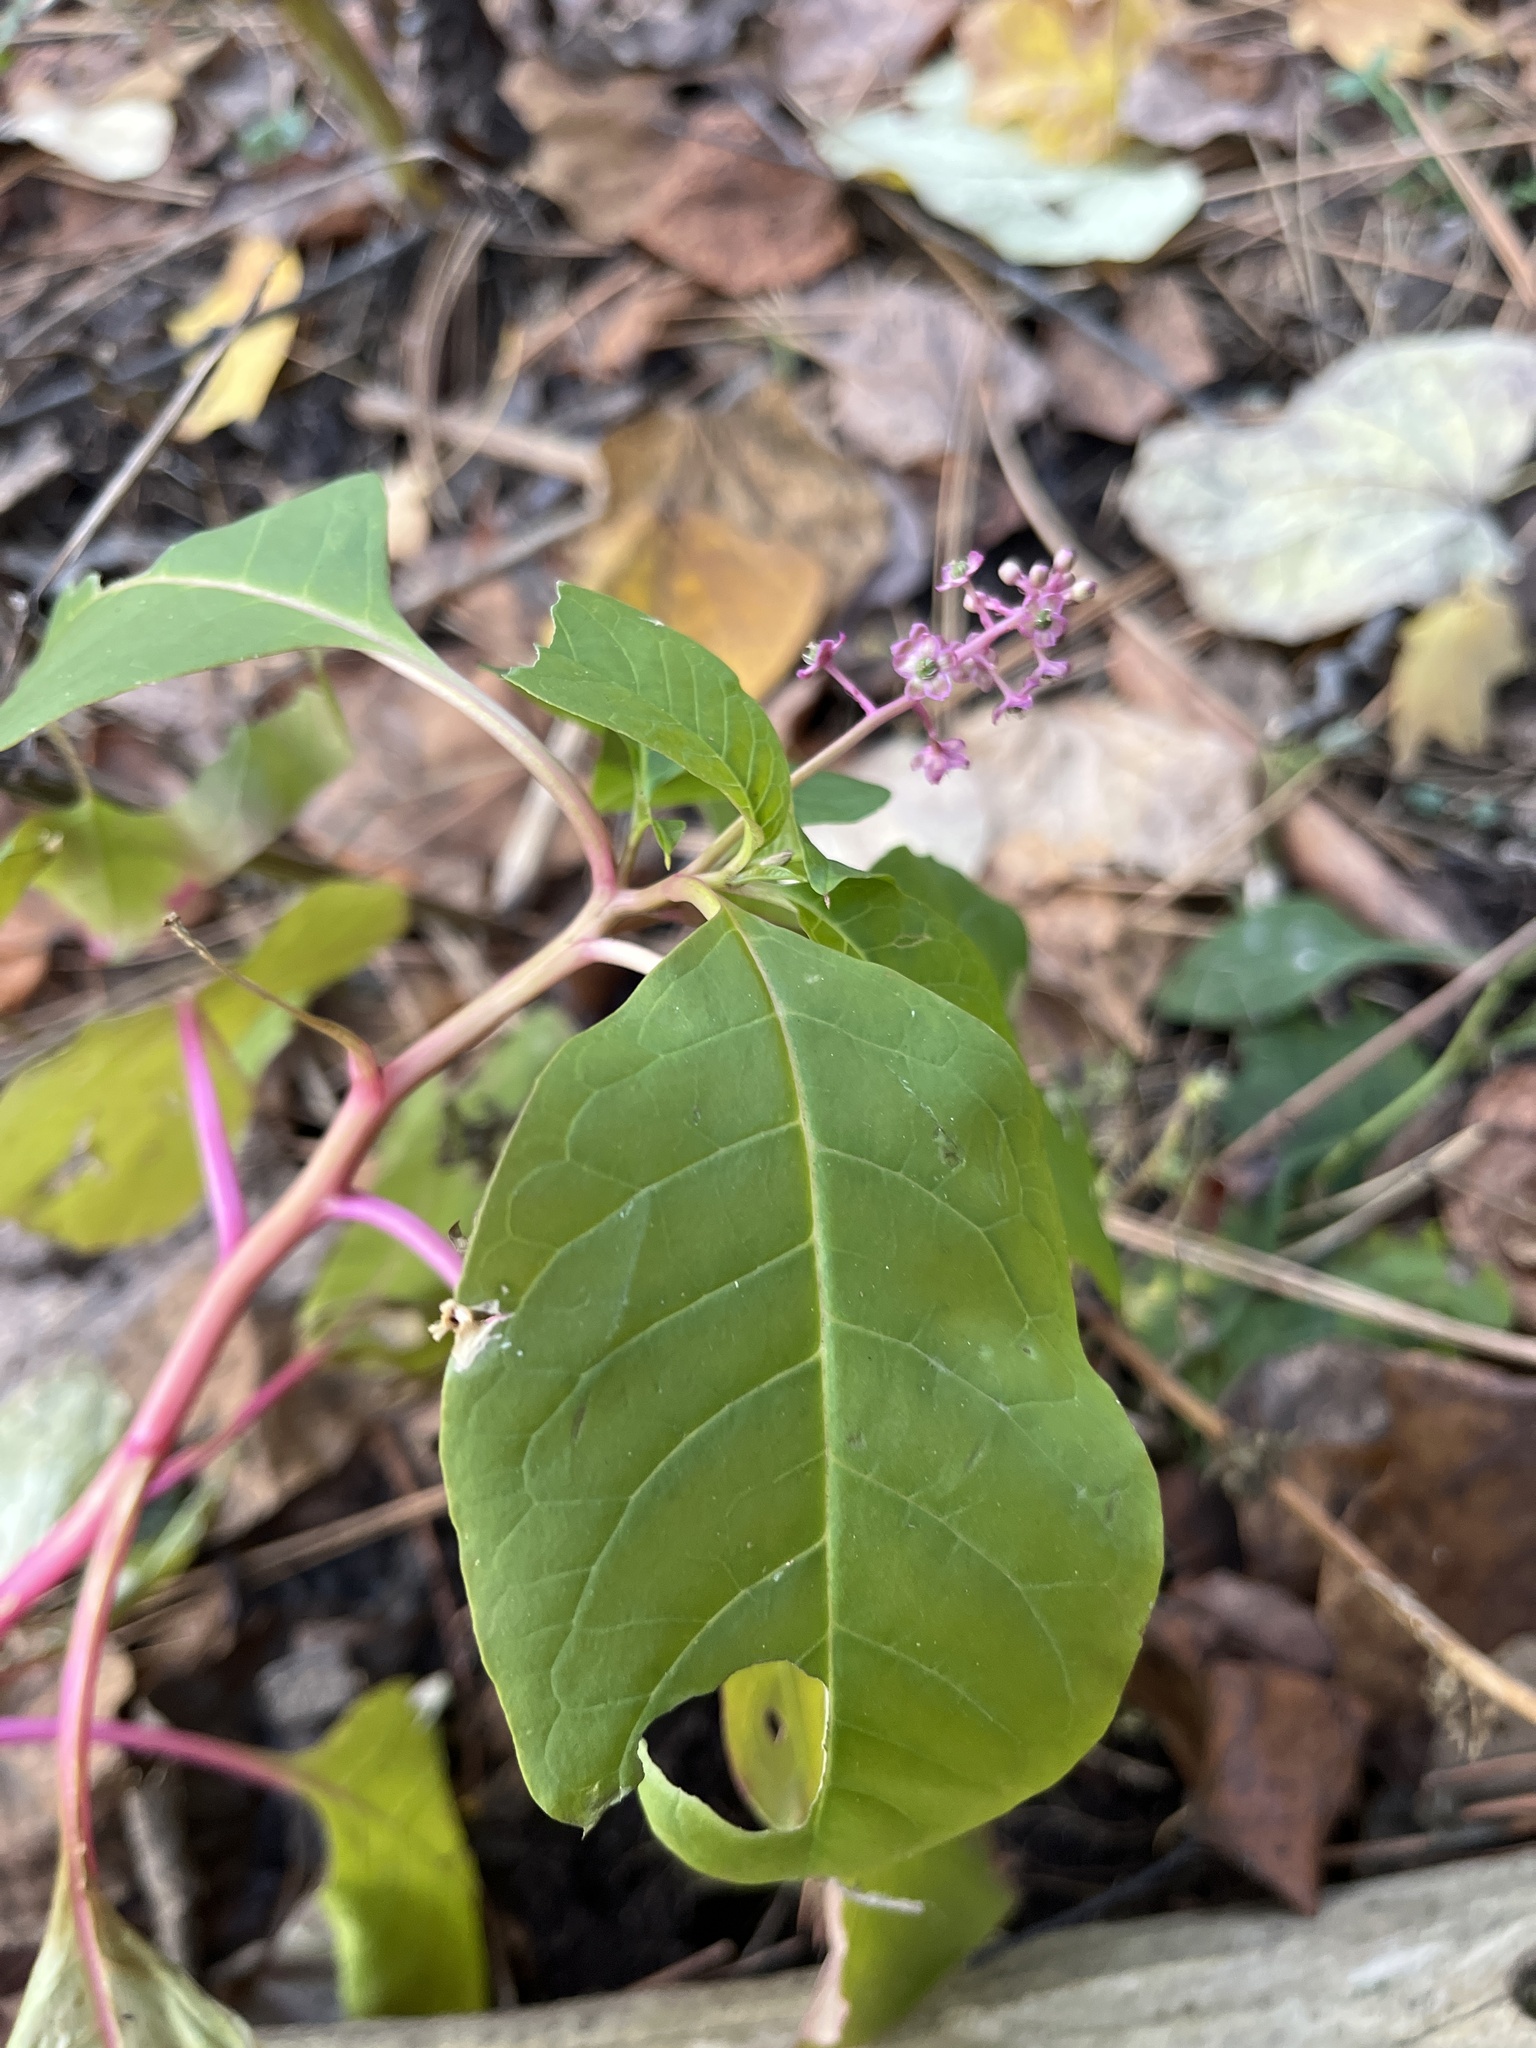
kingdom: Plantae
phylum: Tracheophyta
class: Magnoliopsida
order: Caryophyllales
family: Phytolaccaceae
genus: Phytolacca
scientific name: Phytolacca americana
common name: American pokeweed
